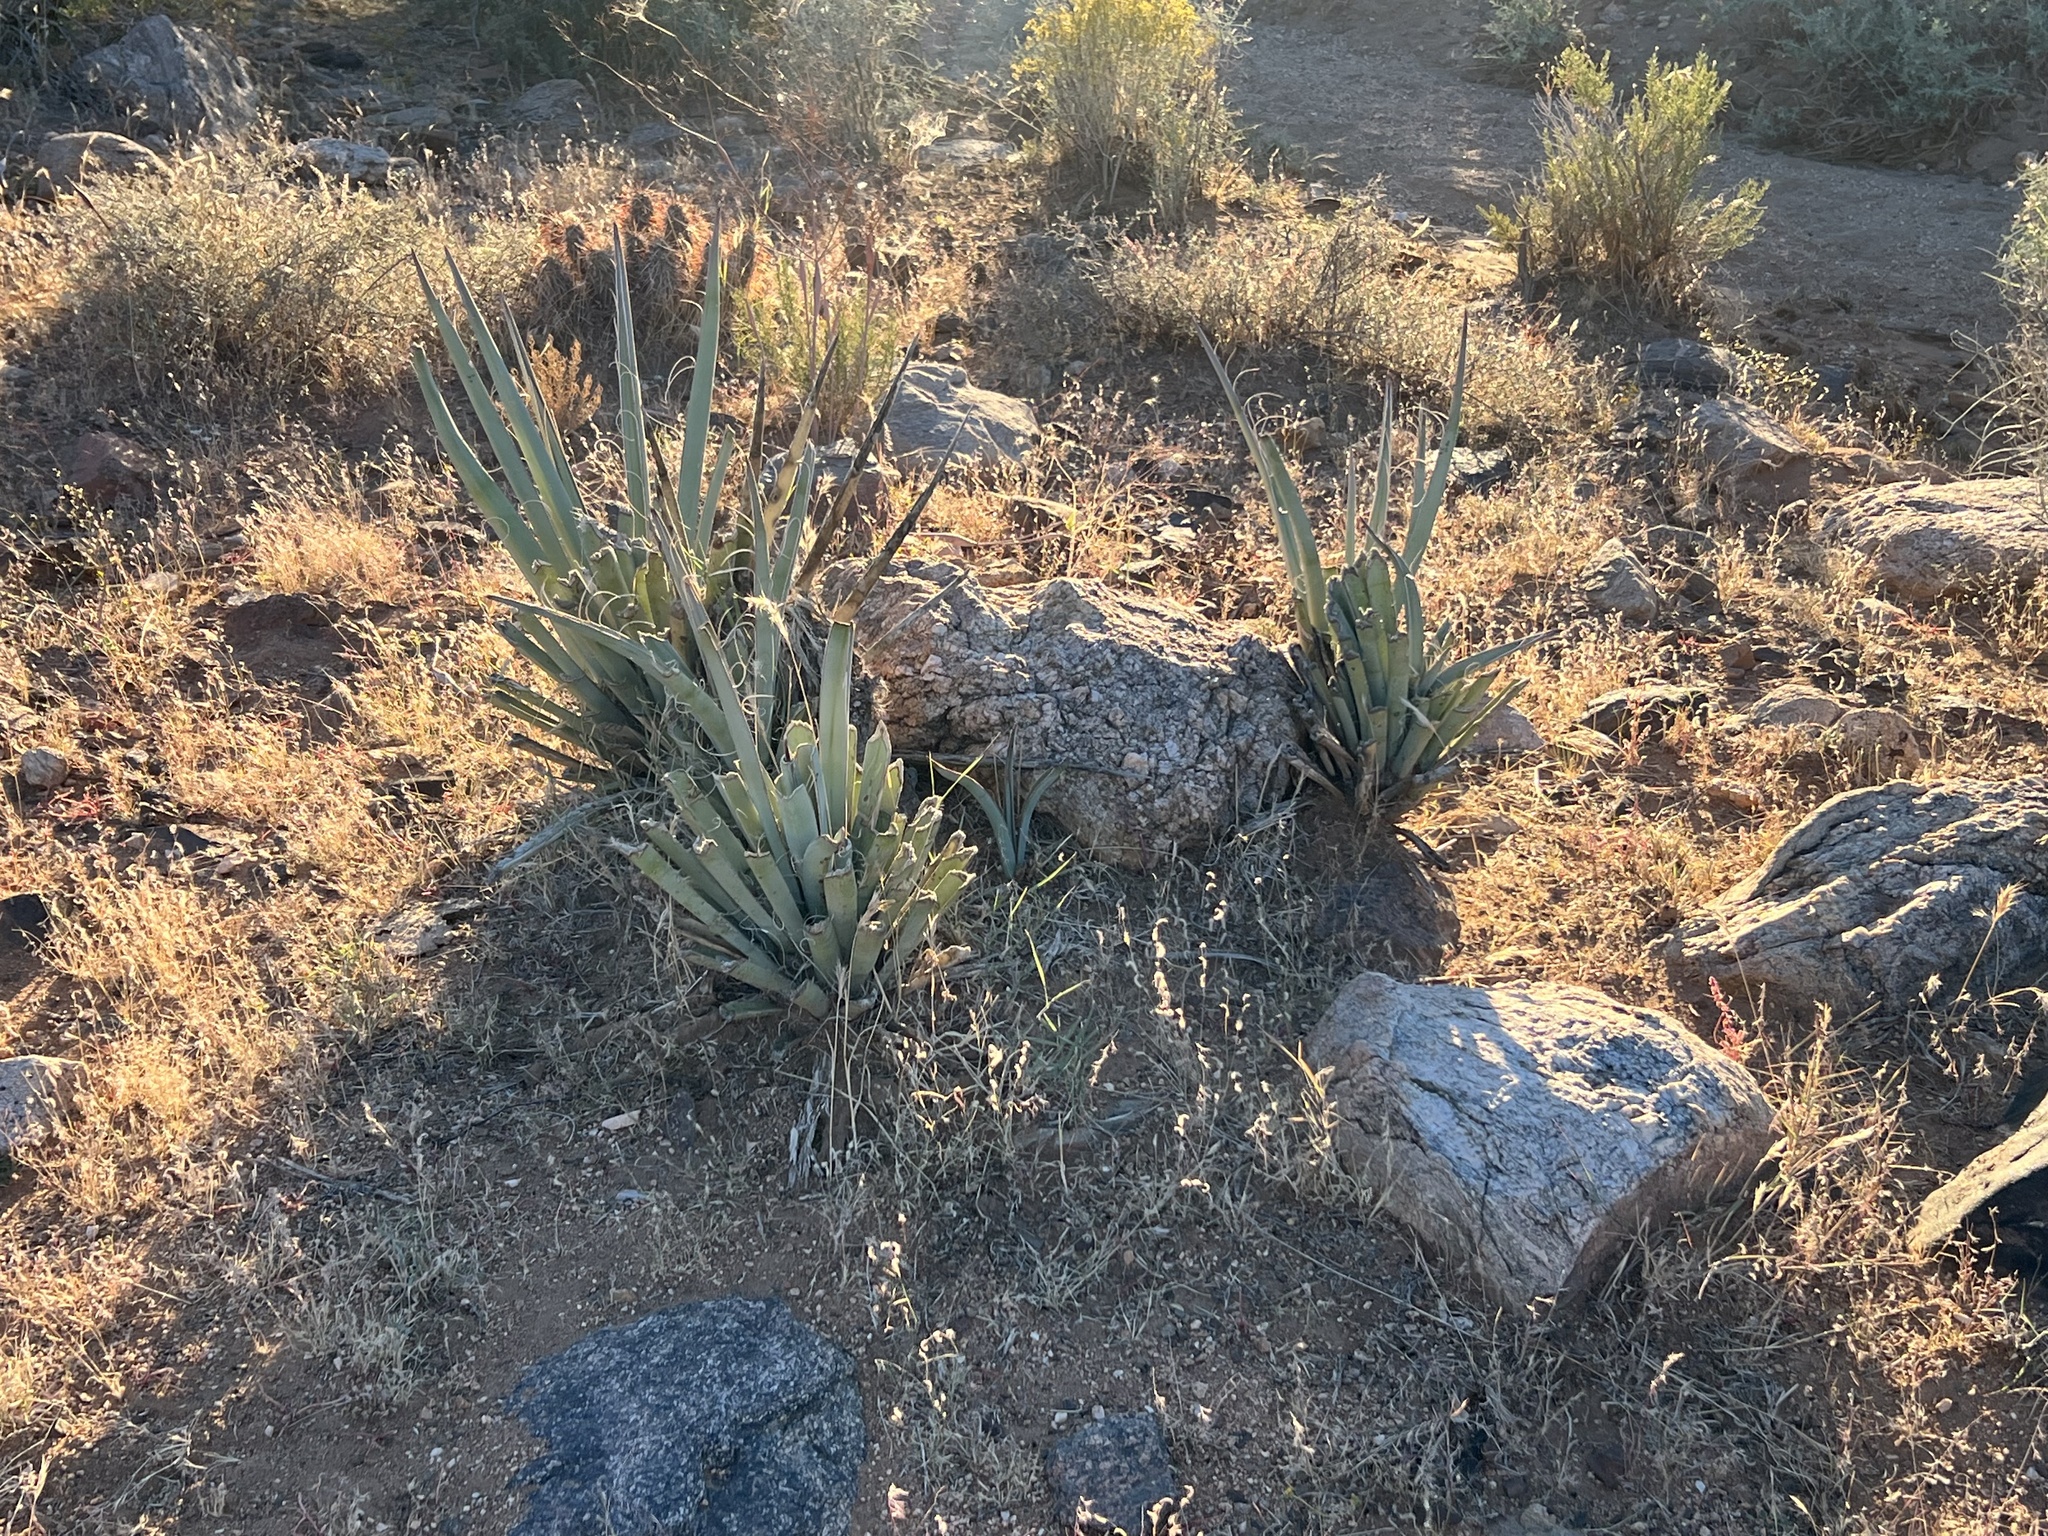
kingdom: Plantae
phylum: Tracheophyta
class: Liliopsida
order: Asparagales
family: Asparagaceae
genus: Yucca
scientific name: Yucca baccata
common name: Banana yucca
